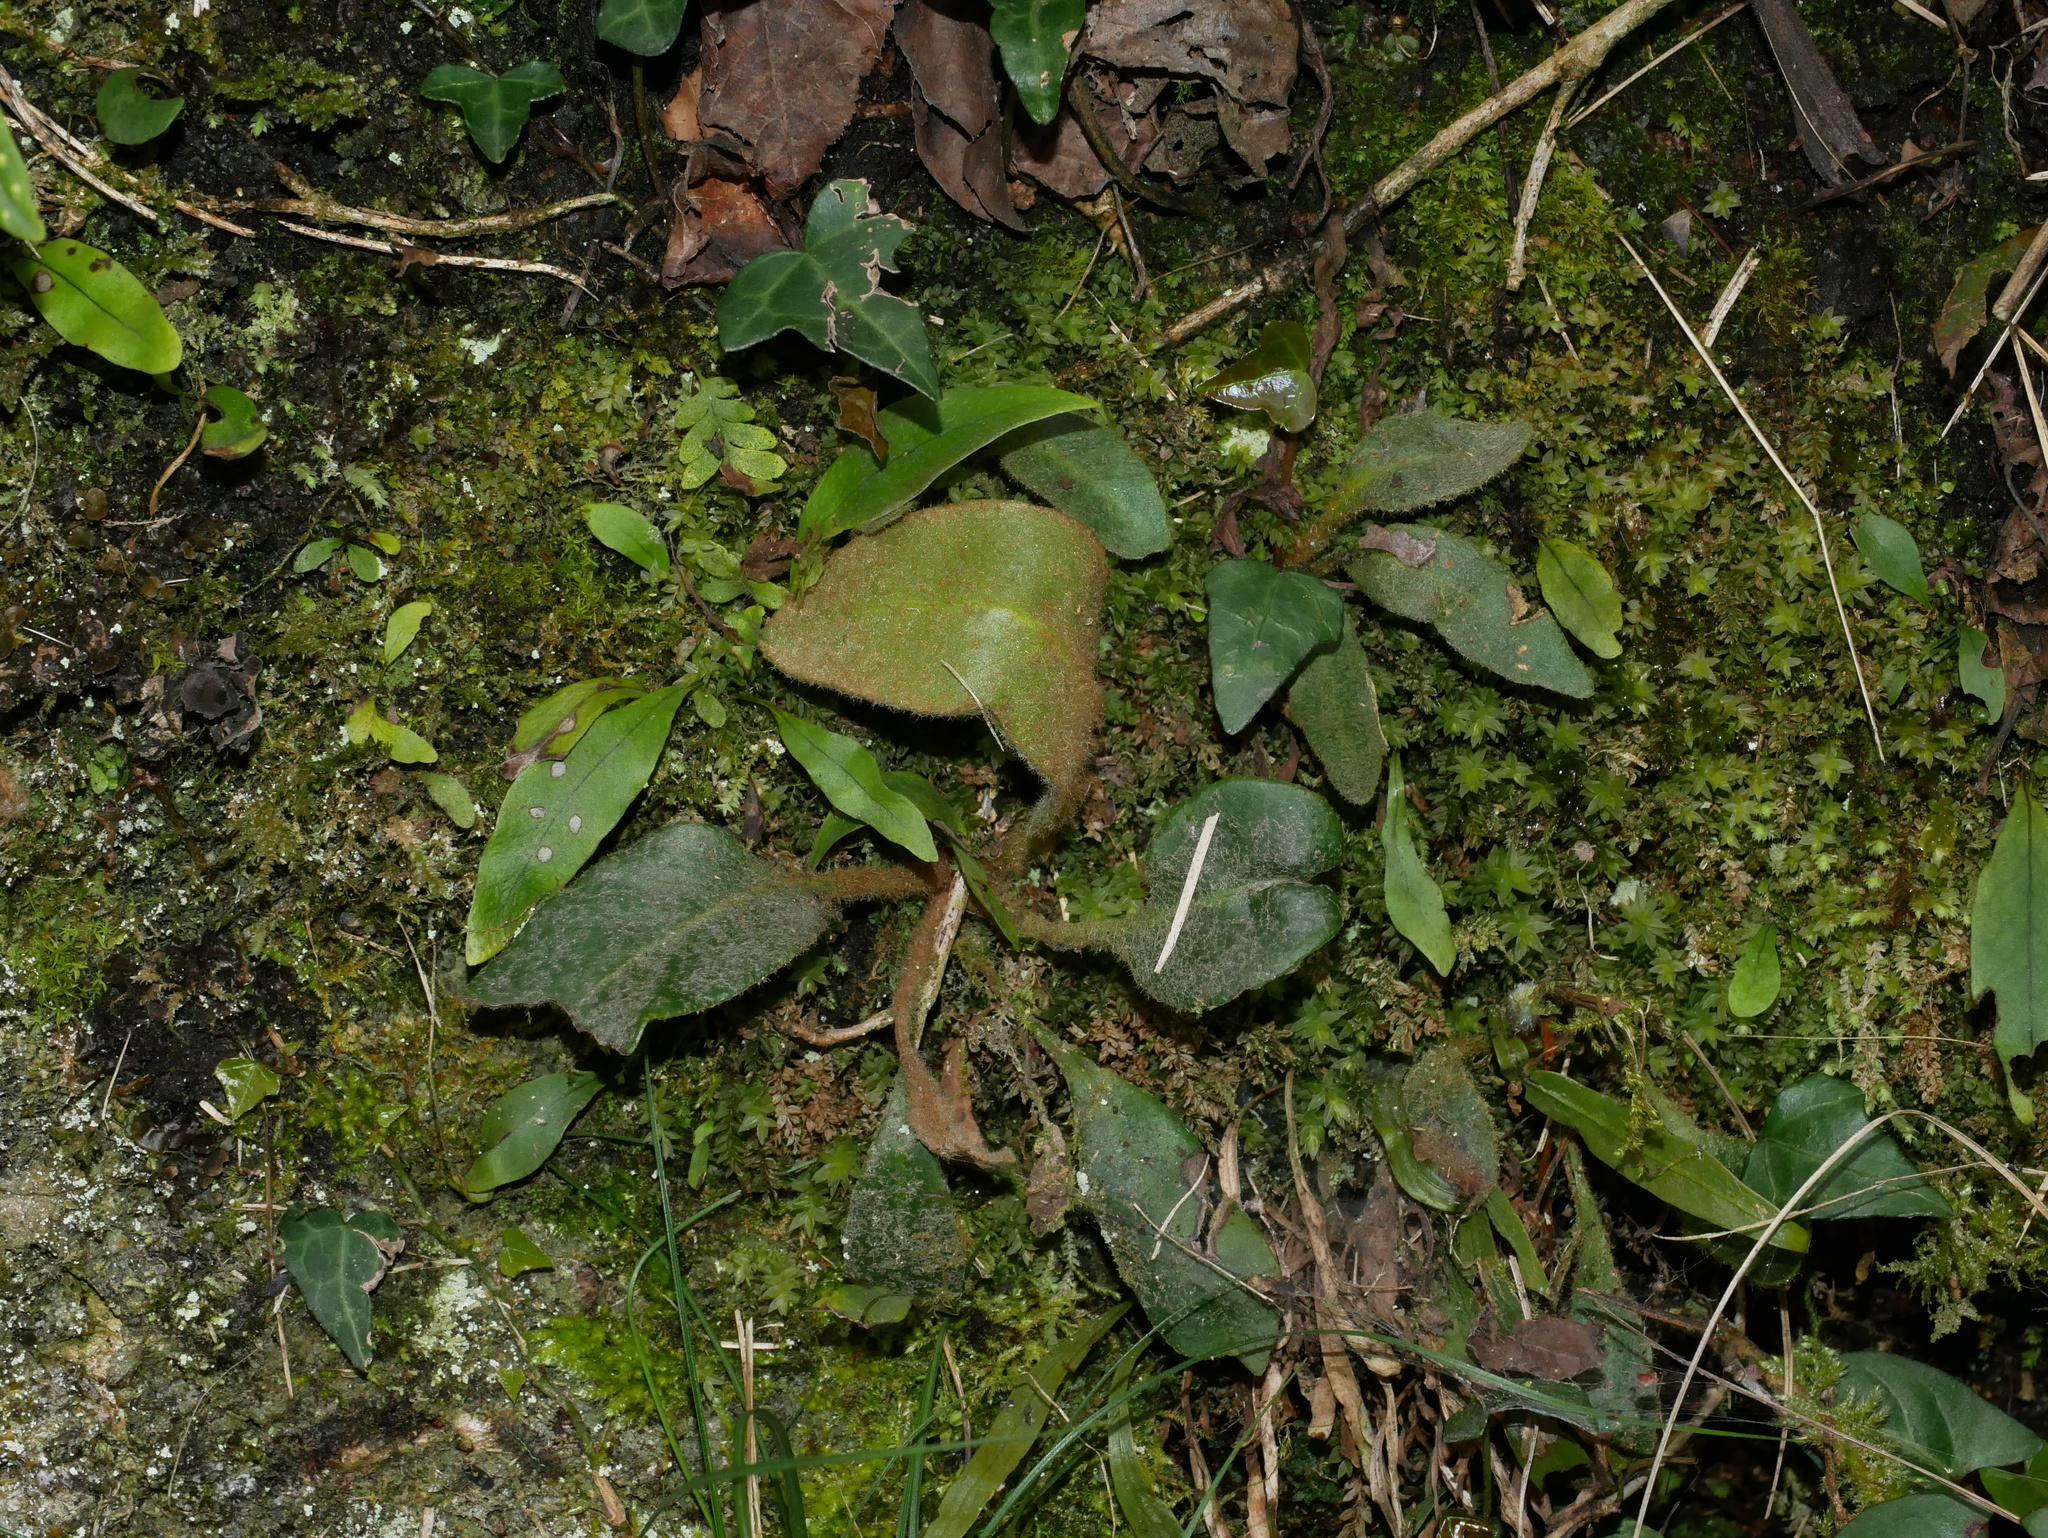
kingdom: Plantae
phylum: Tracheophyta
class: Polypodiopsida
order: Polypodiales
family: Polypodiaceae
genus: Pyrrosia
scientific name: Pyrrosia sheareri
